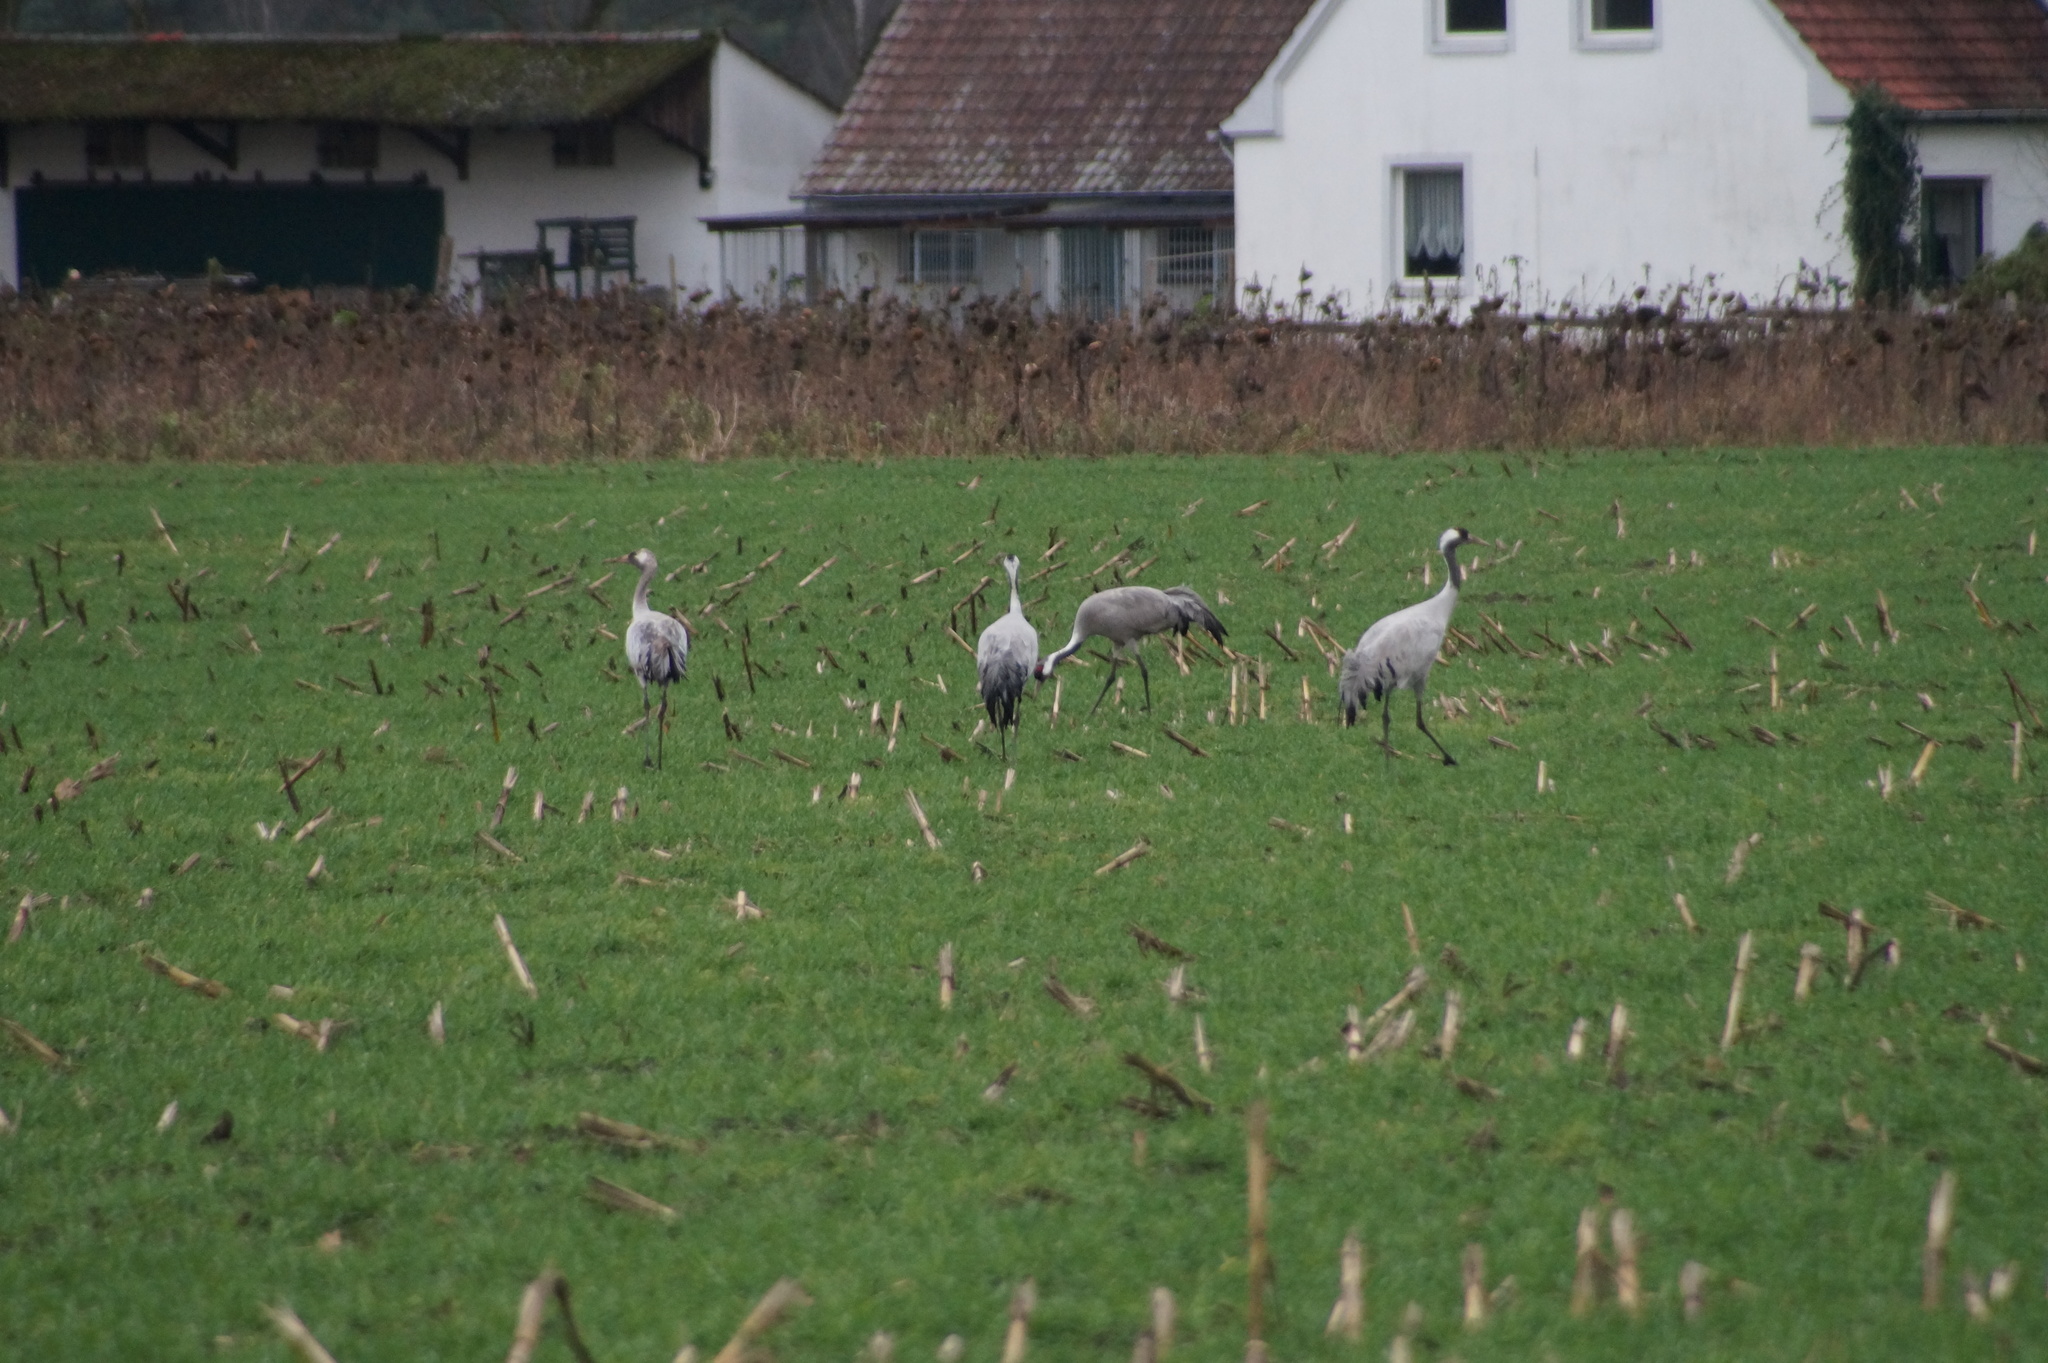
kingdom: Animalia
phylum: Chordata
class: Aves
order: Gruiformes
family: Gruidae
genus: Grus
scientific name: Grus grus
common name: Common crane
